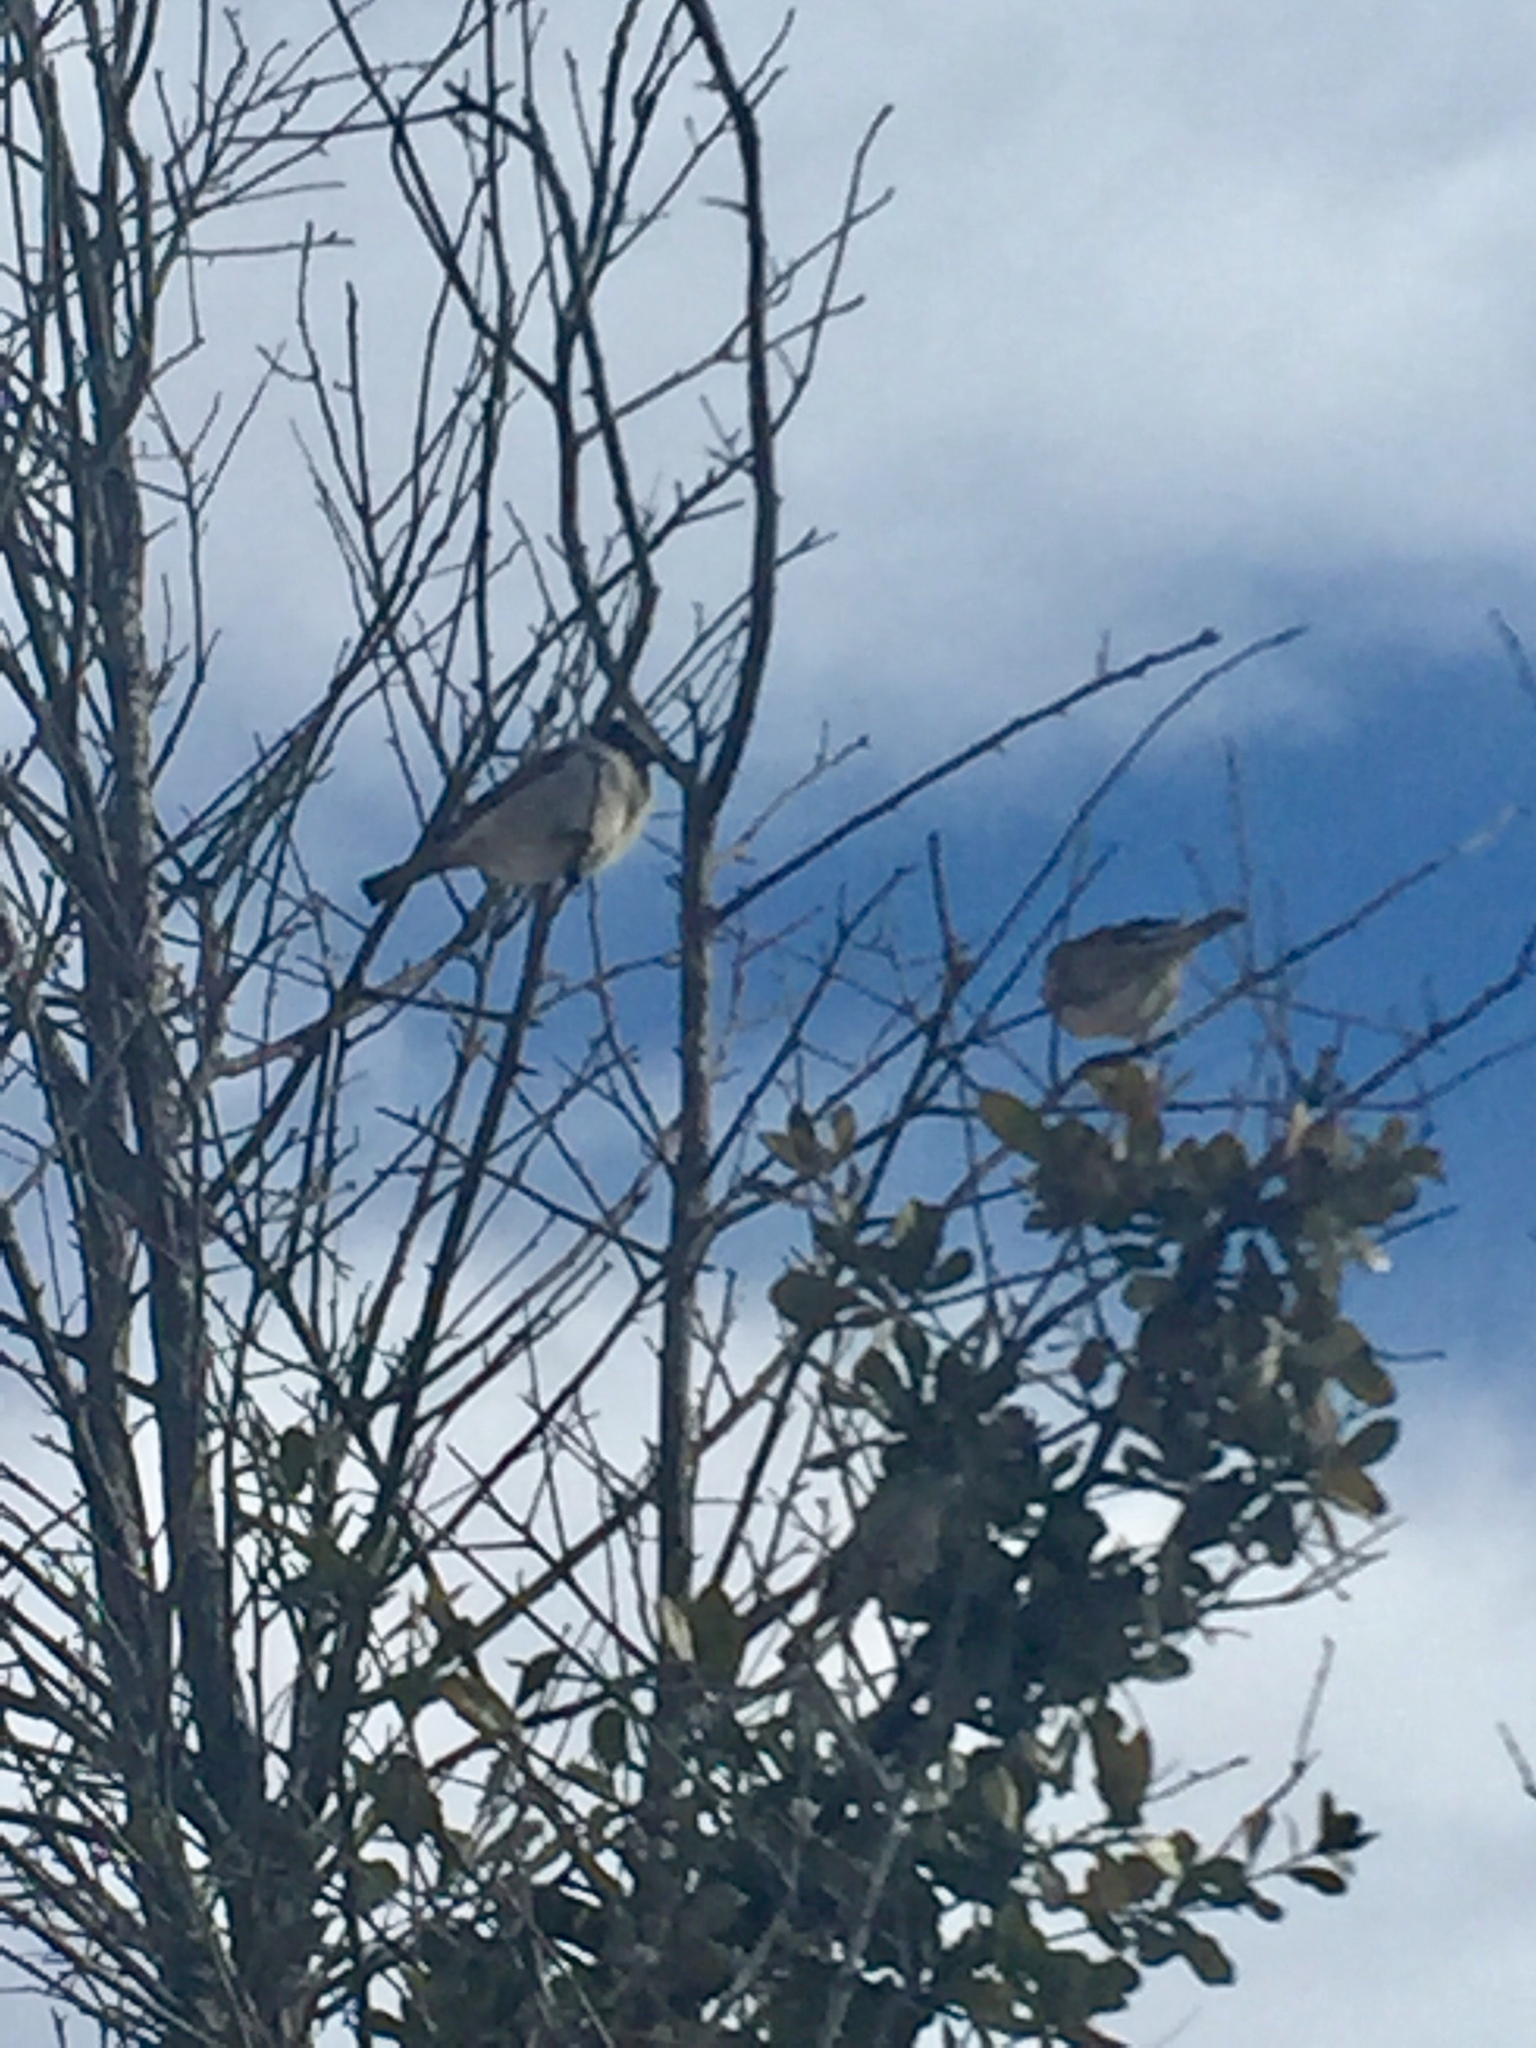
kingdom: Animalia
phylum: Chordata
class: Aves
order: Passeriformes
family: Passeridae
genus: Passer
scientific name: Passer domesticus
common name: House sparrow
